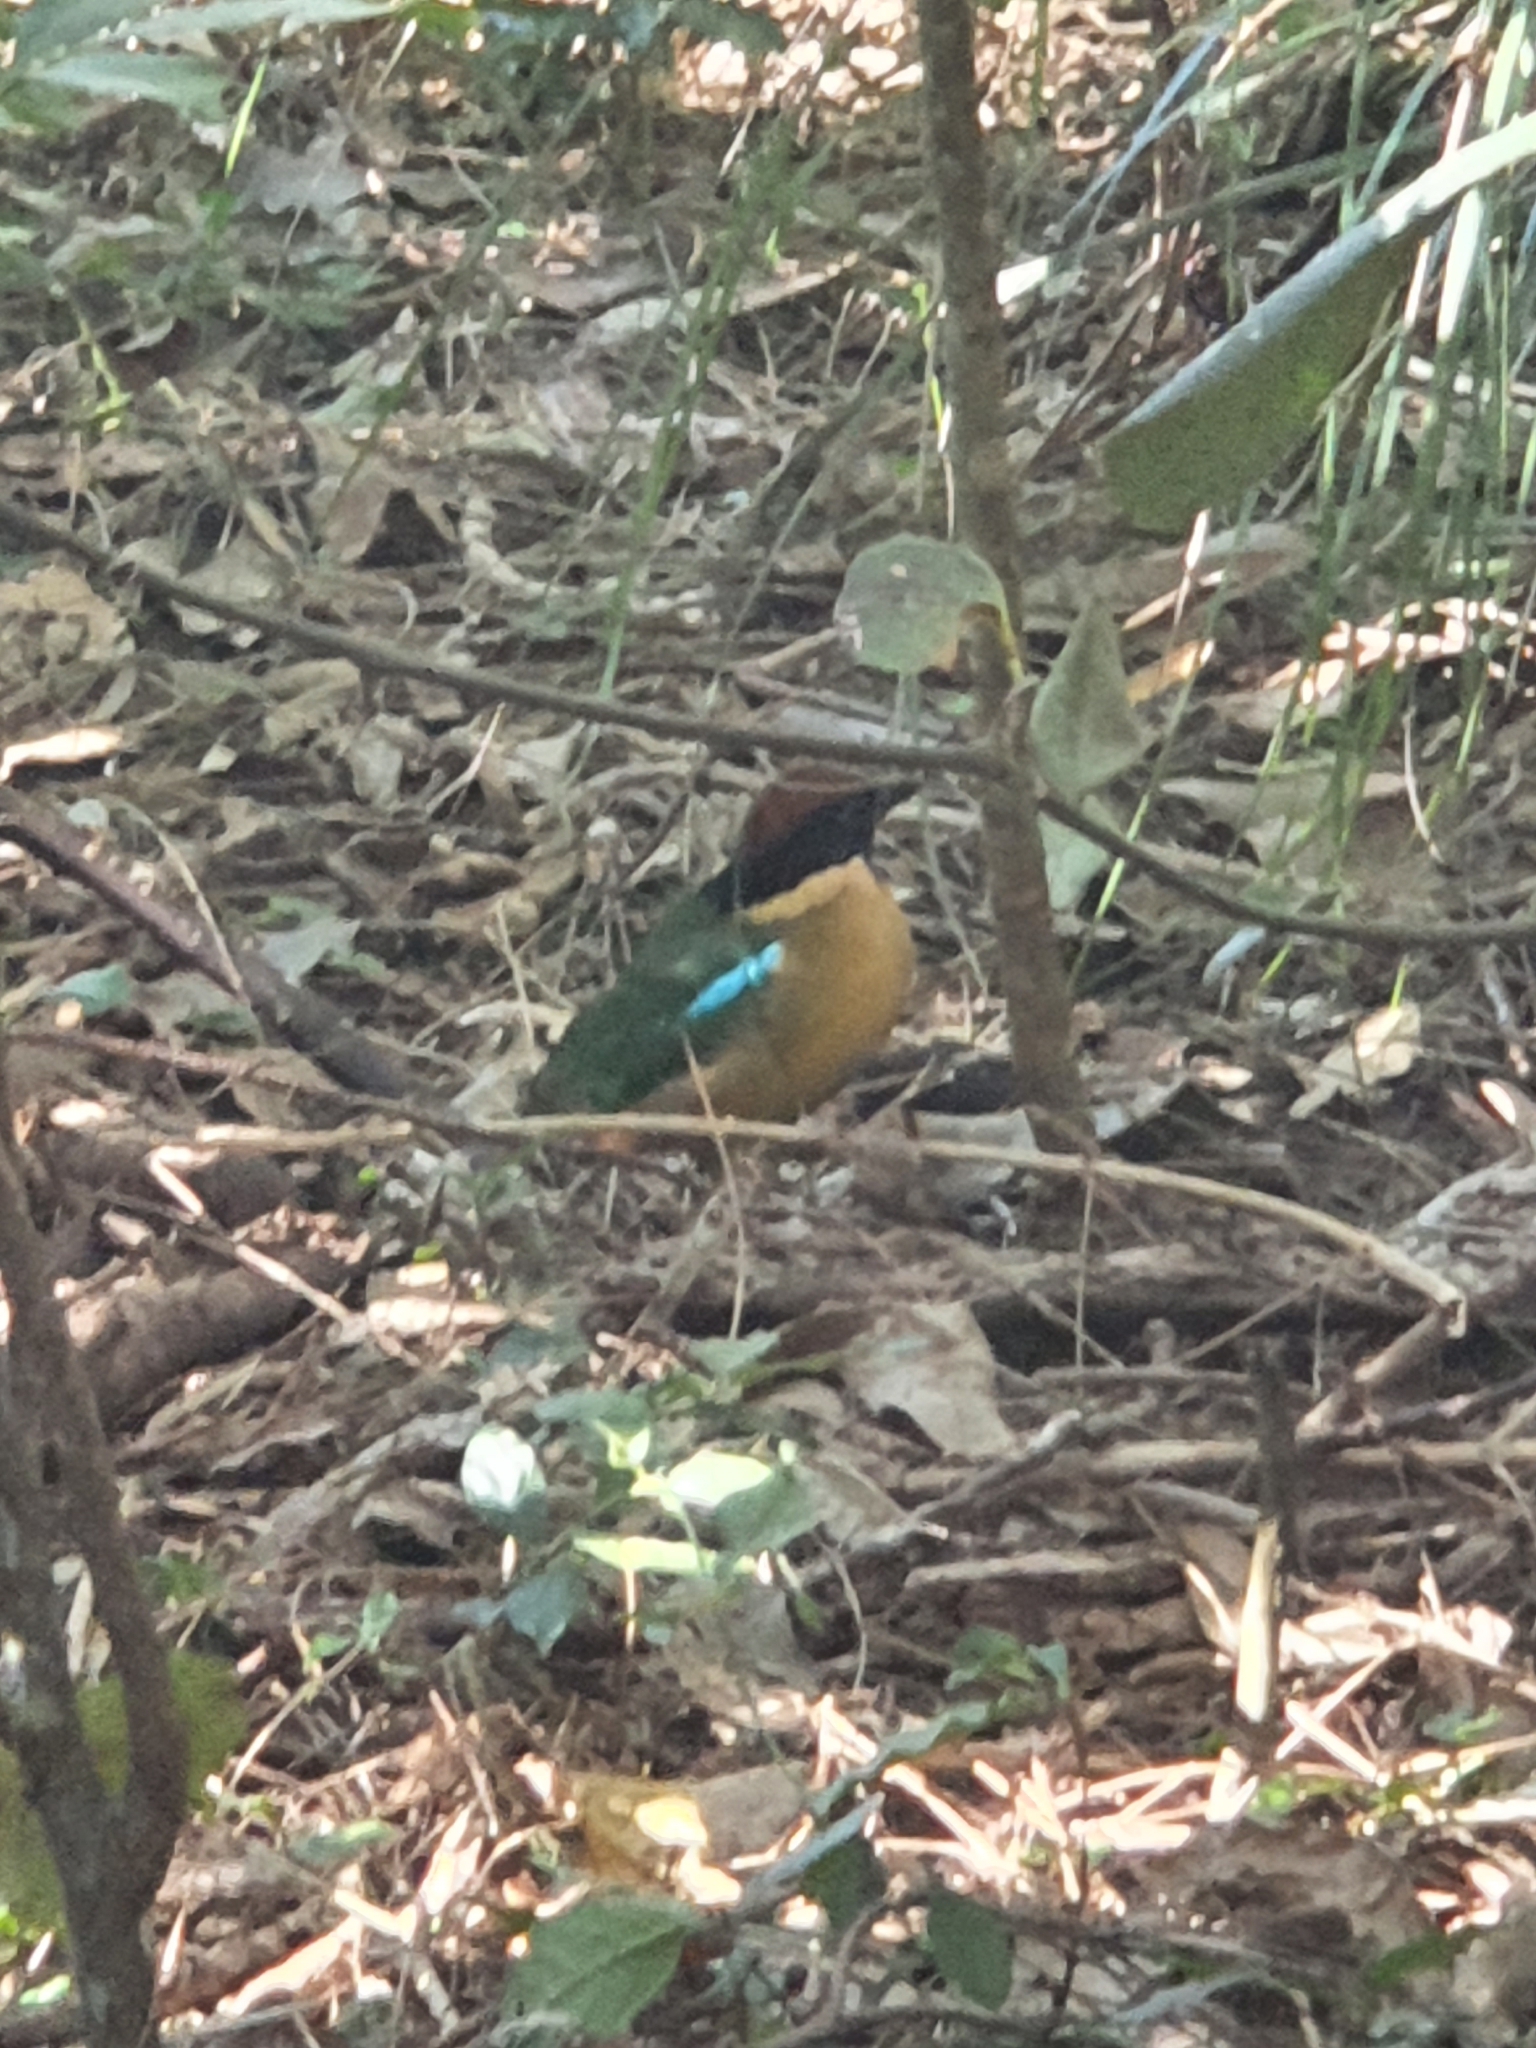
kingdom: Animalia
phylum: Chordata
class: Aves
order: Passeriformes
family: Pittidae
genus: Pitta
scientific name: Pitta versicolor
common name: Noisy pitta
